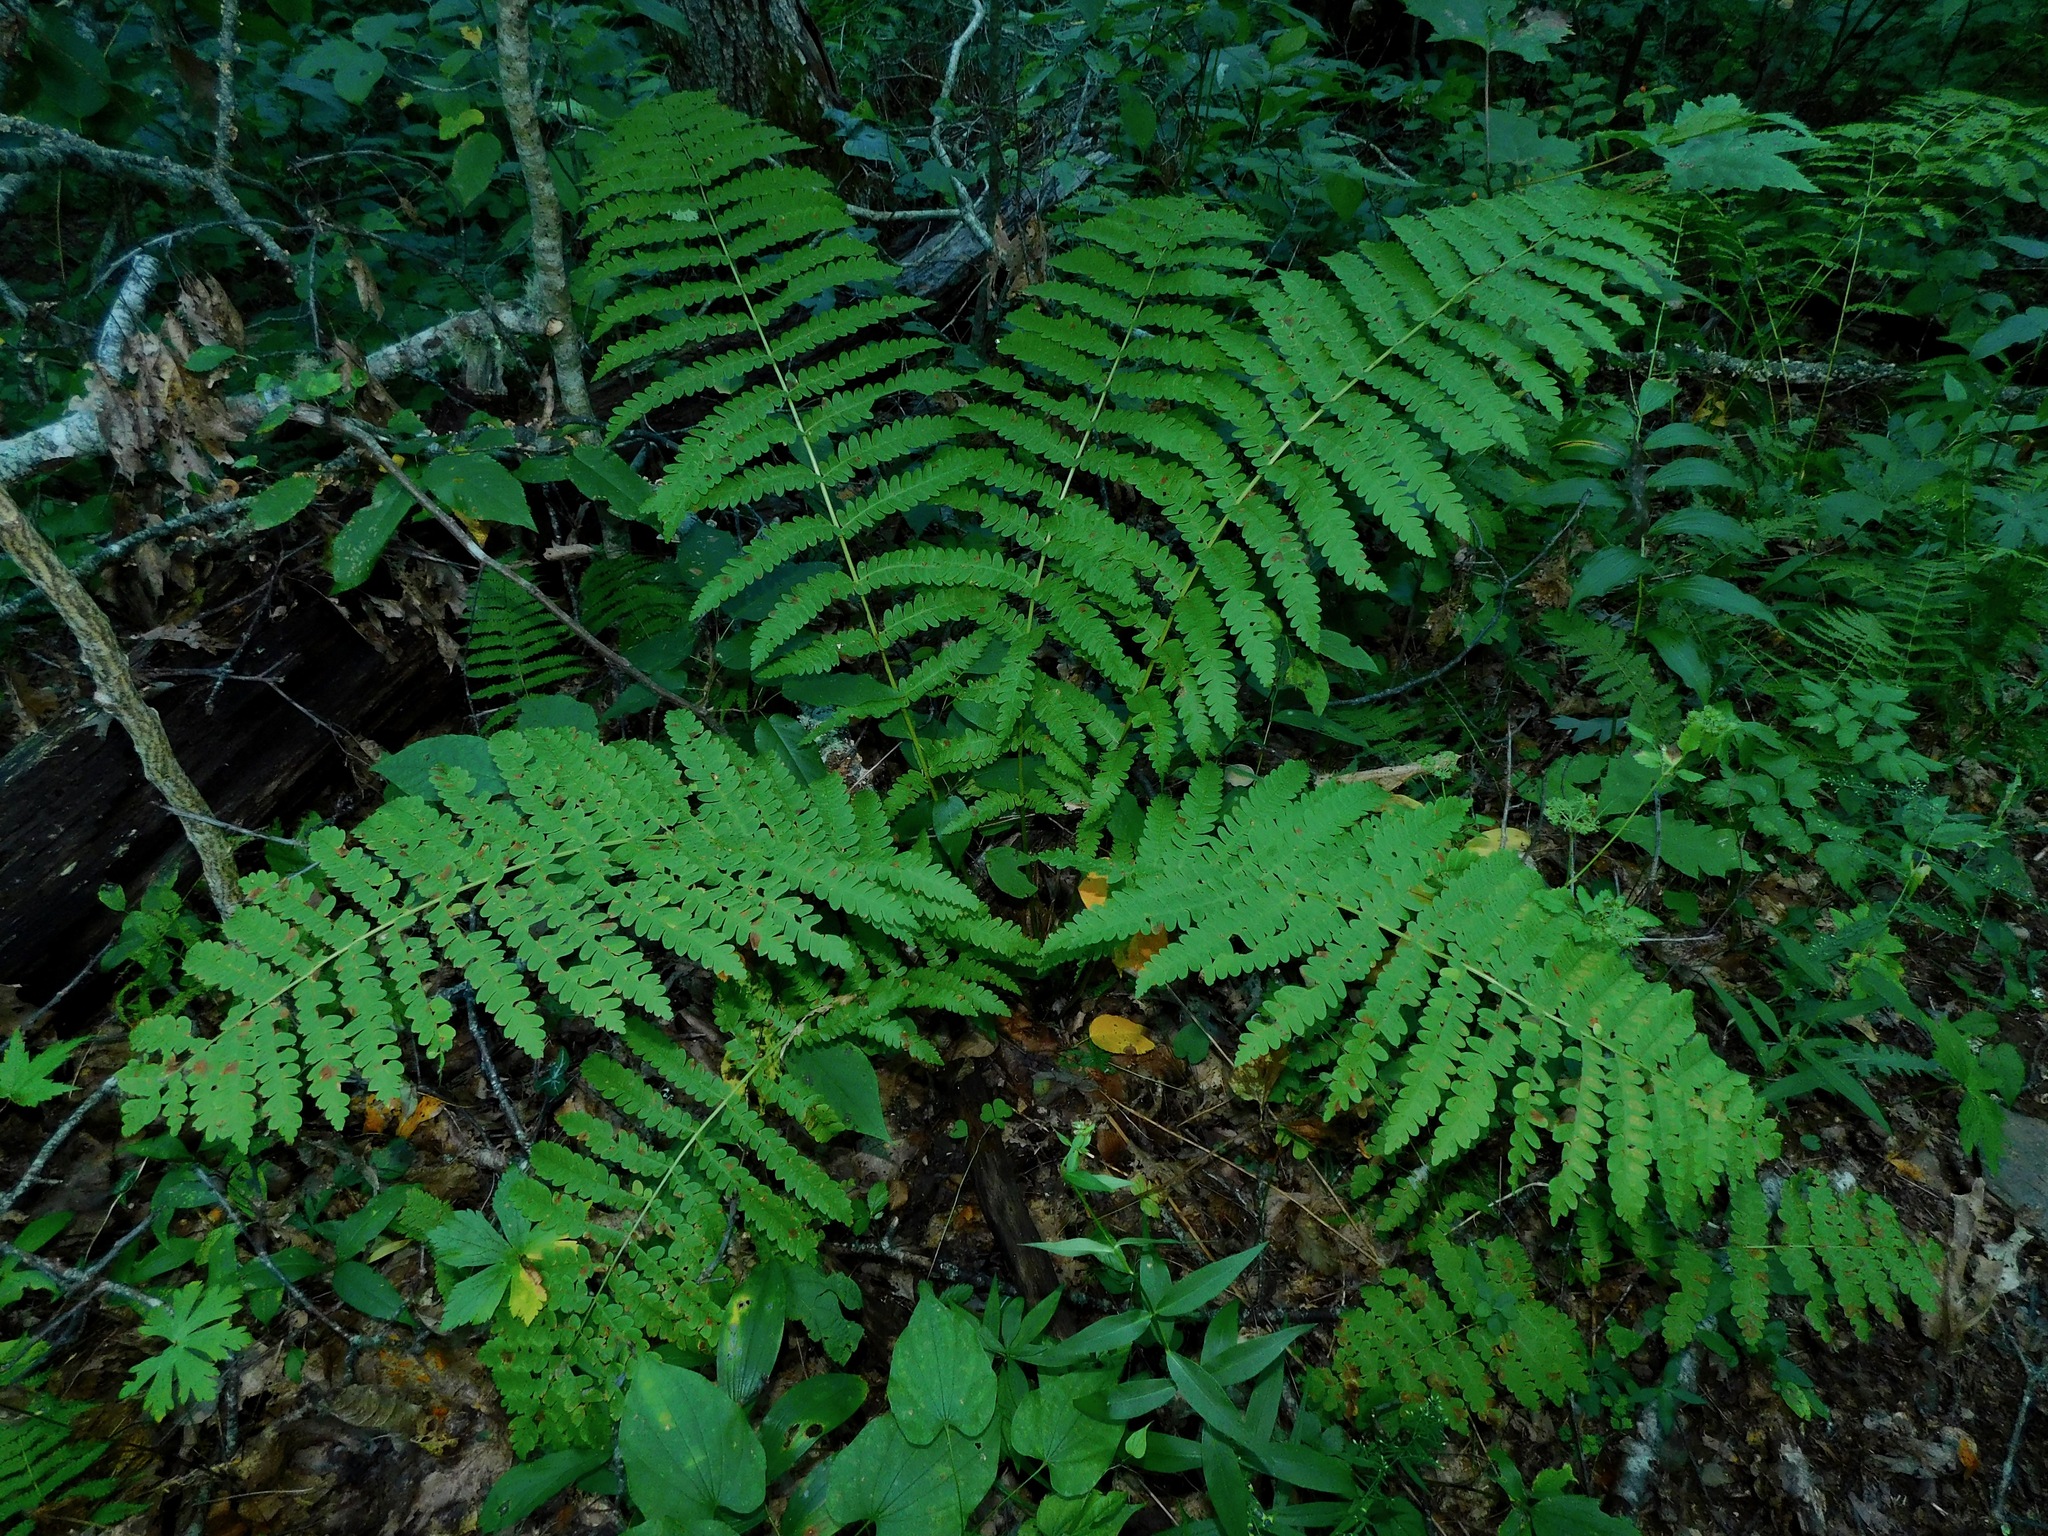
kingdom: Plantae
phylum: Tracheophyta
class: Polypodiopsida
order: Osmundales
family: Osmundaceae
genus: Osmundastrum
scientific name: Osmundastrum cinnamomeum
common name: Cinnamon fern
